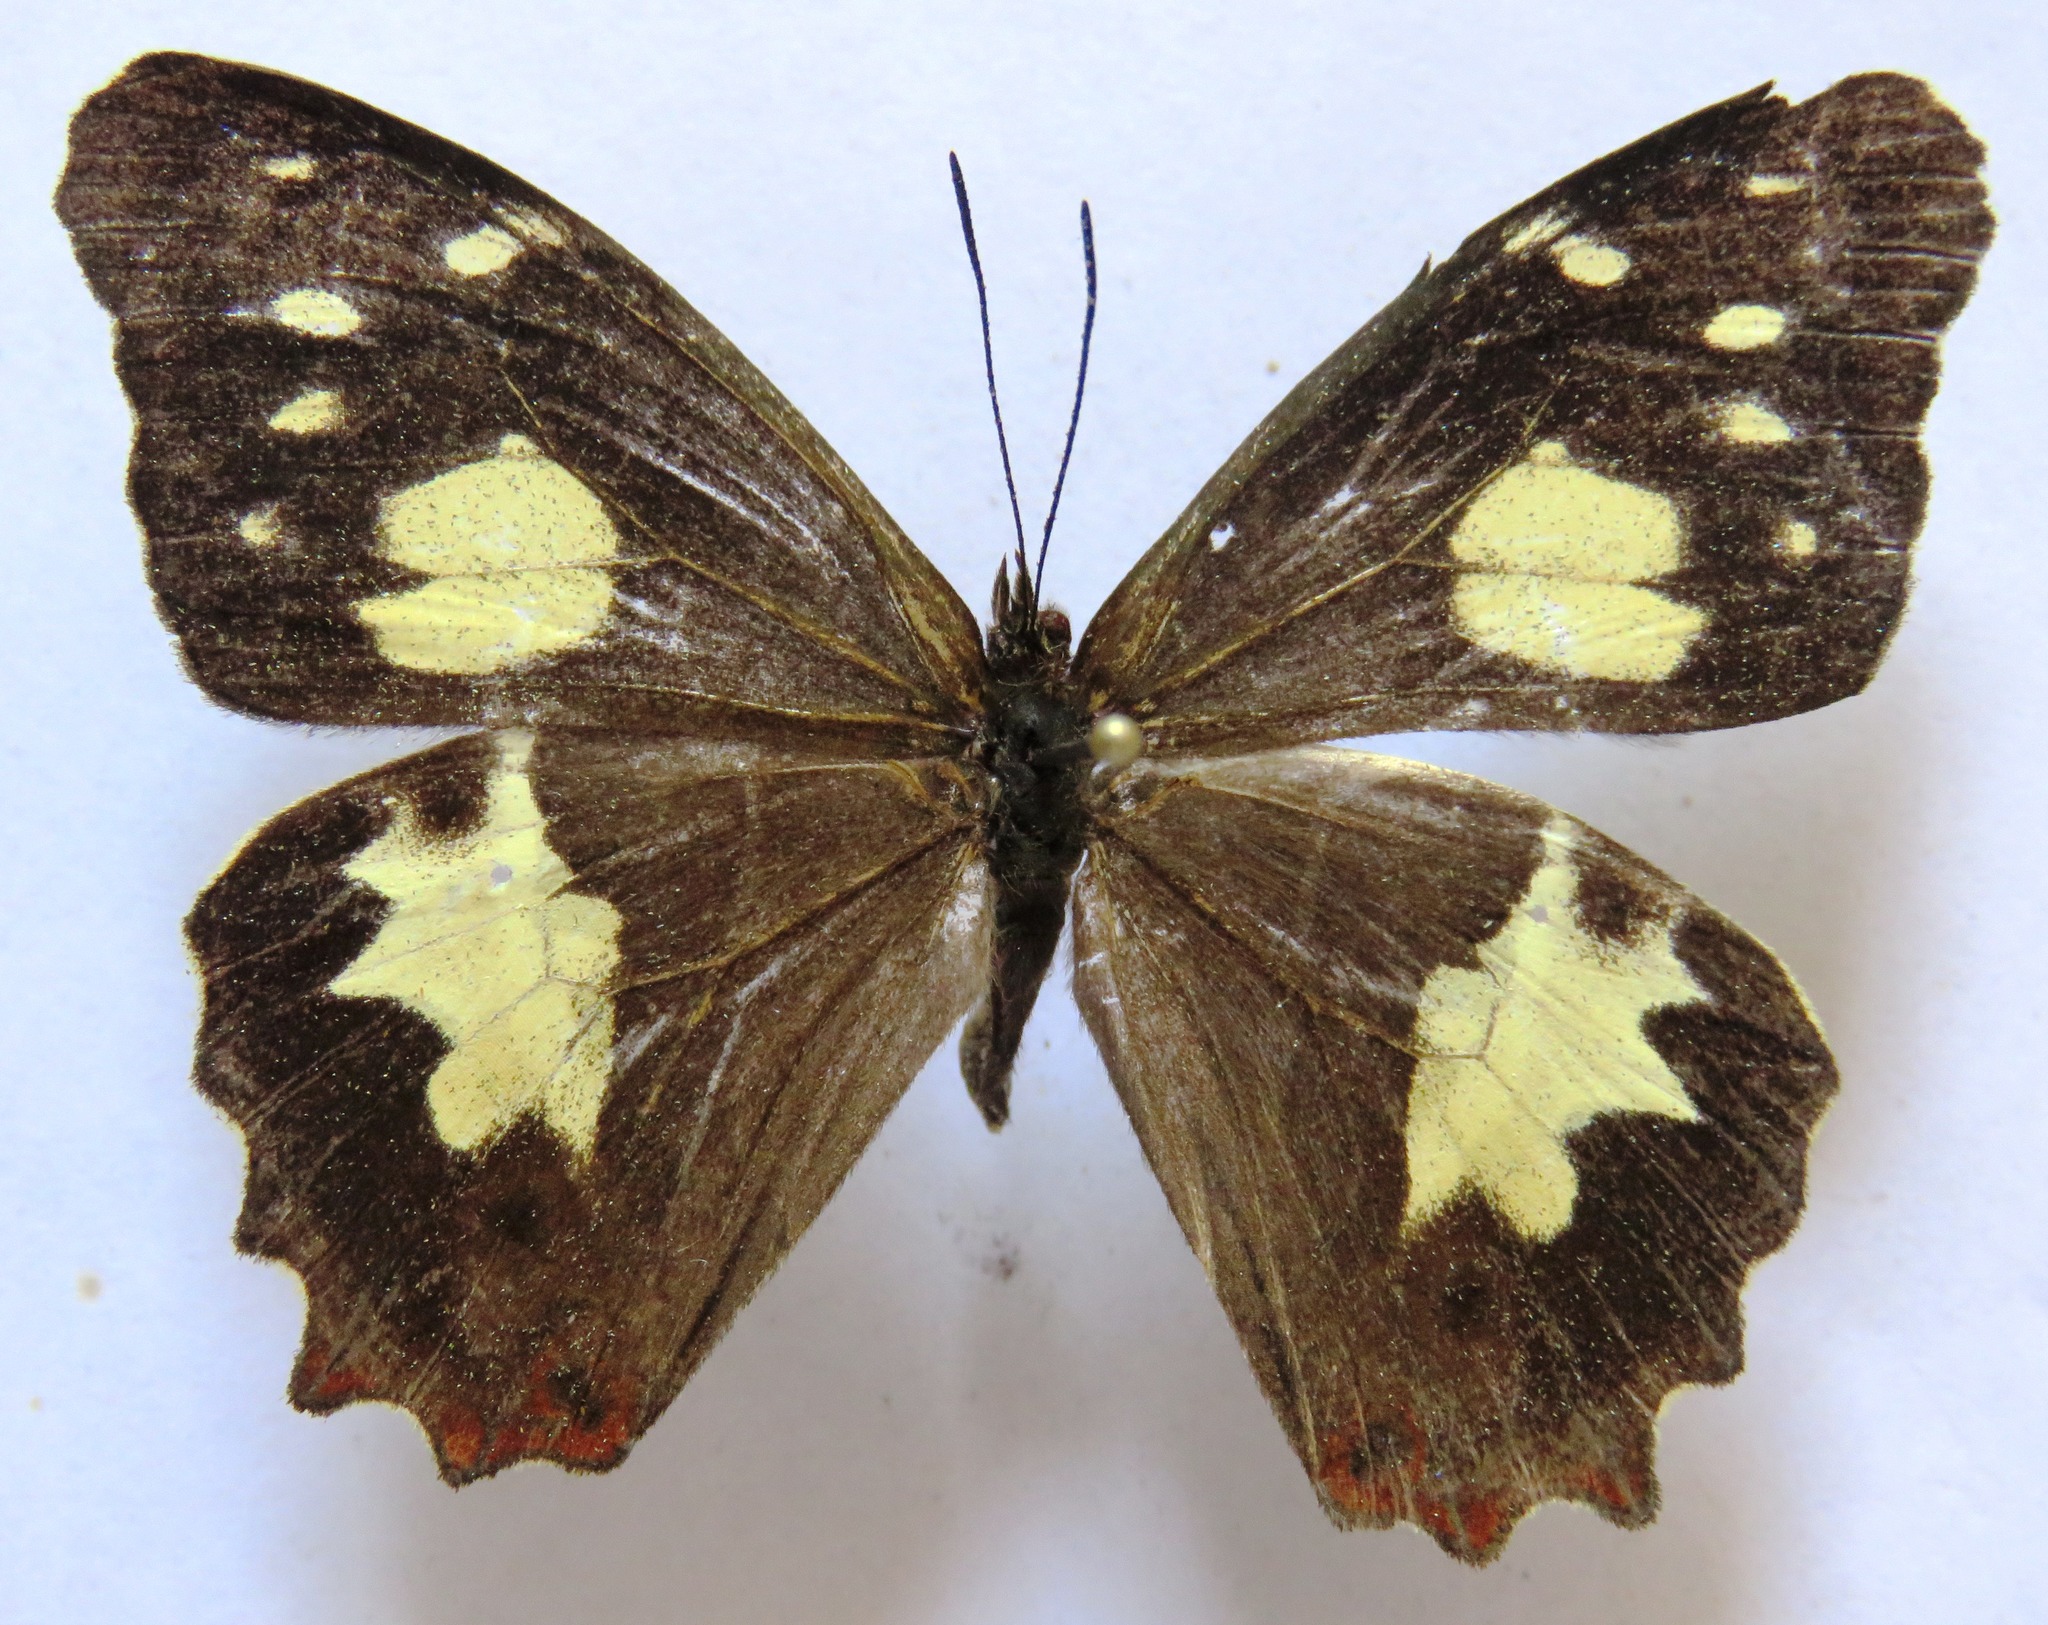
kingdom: Animalia
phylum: Arthropoda
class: Insecta
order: Lepidoptera
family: Nymphalidae
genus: Oxeoschistus
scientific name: Oxeoschistus tauropolis
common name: Starred oxeo
